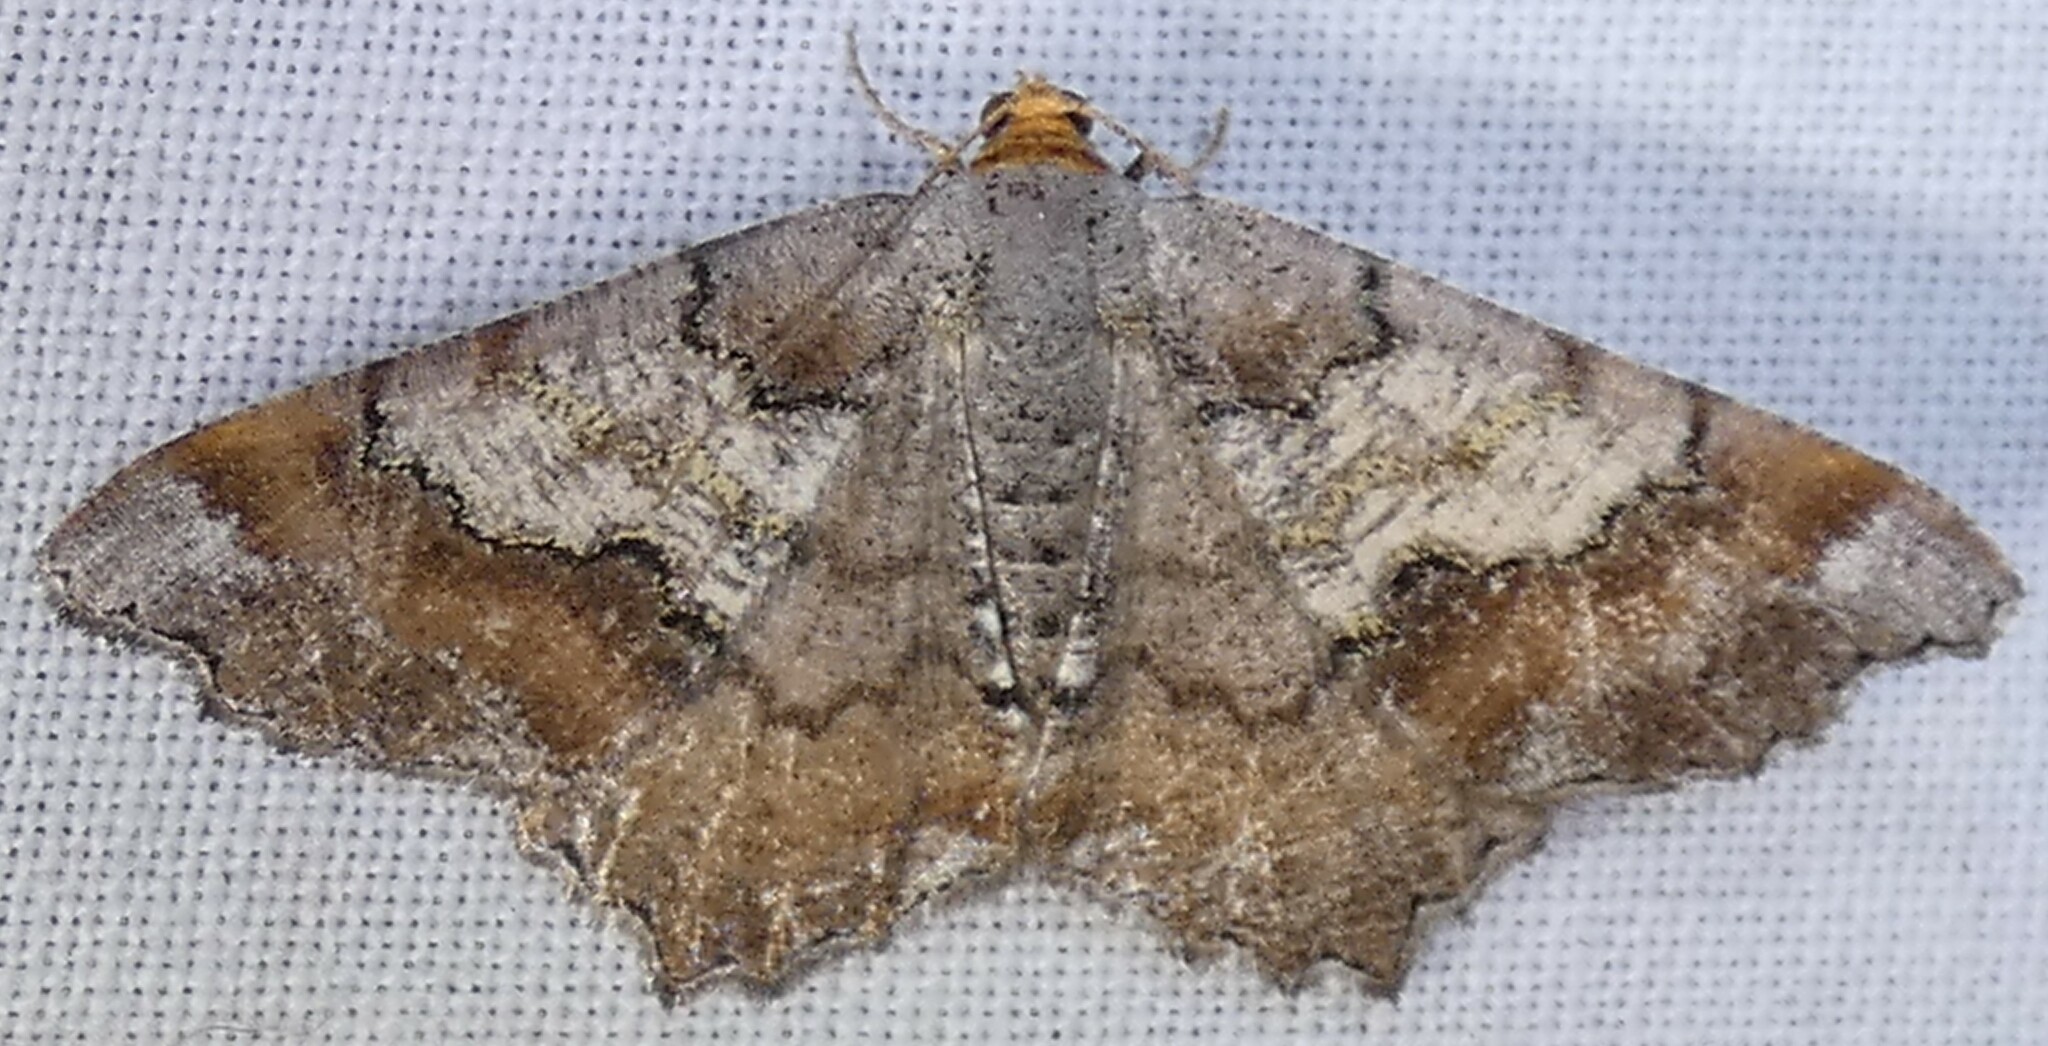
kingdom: Animalia
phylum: Arthropoda
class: Insecta
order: Lepidoptera
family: Geometridae
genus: Macaria
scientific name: Macaria distribuaria
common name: Southern chocolate angle
